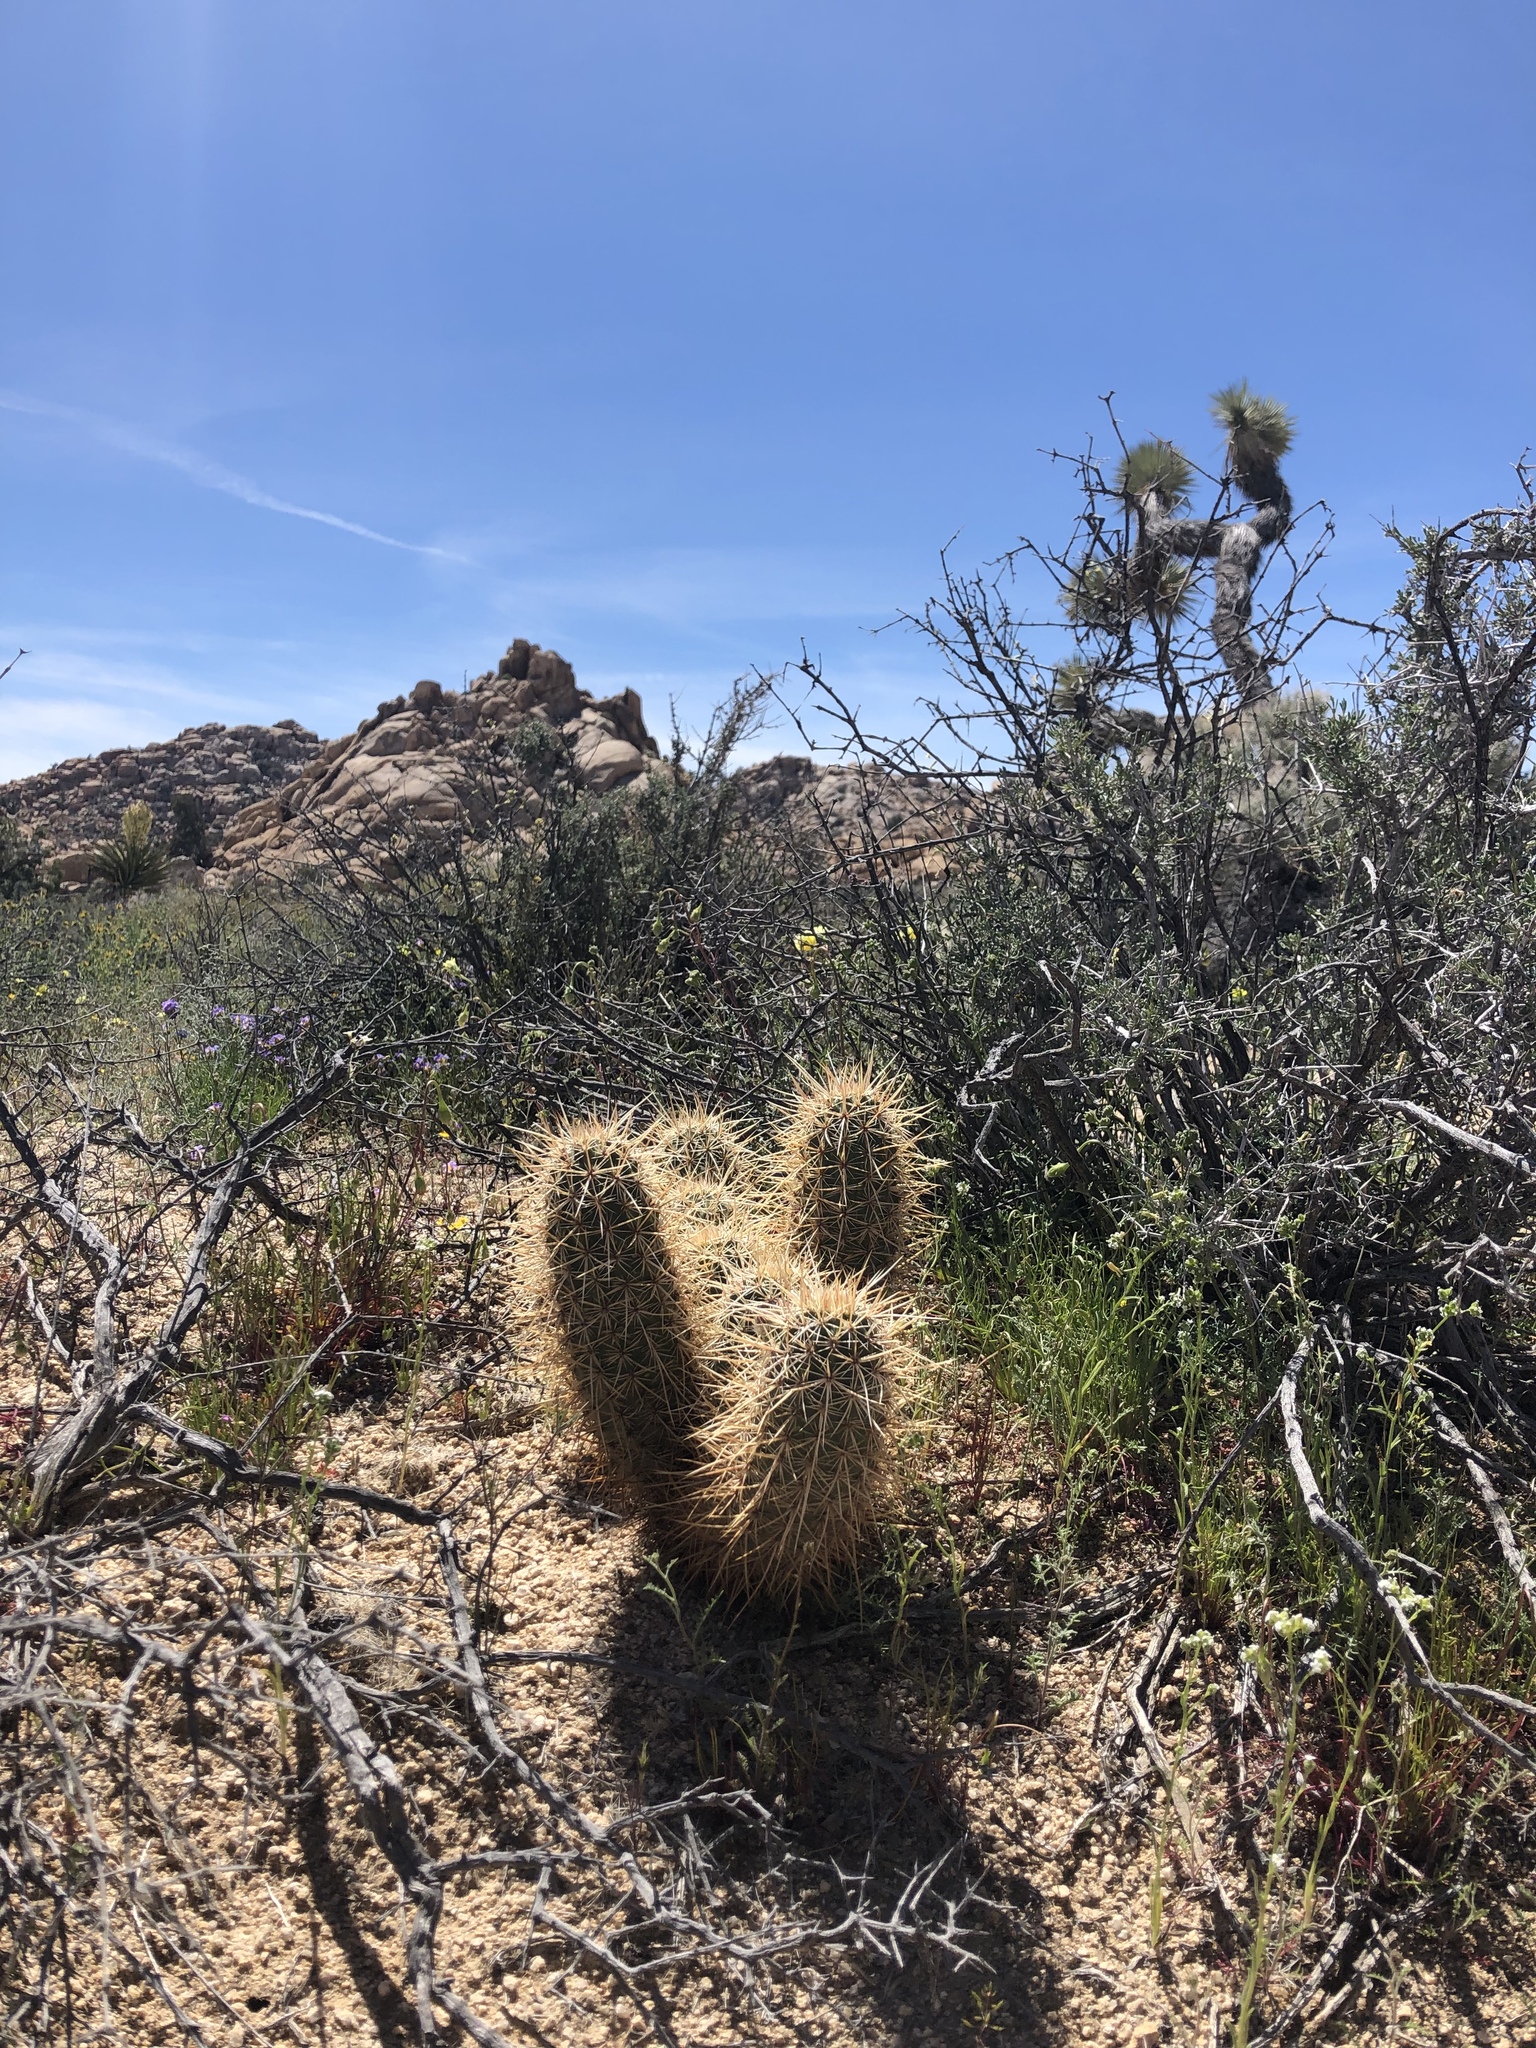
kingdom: Plantae
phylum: Tracheophyta
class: Magnoliopsida
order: Caryophyllales
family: Cactaceae
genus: Echinocereus
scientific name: Echinocereus engelmannii
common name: Engelmann's hedgehog cactus
